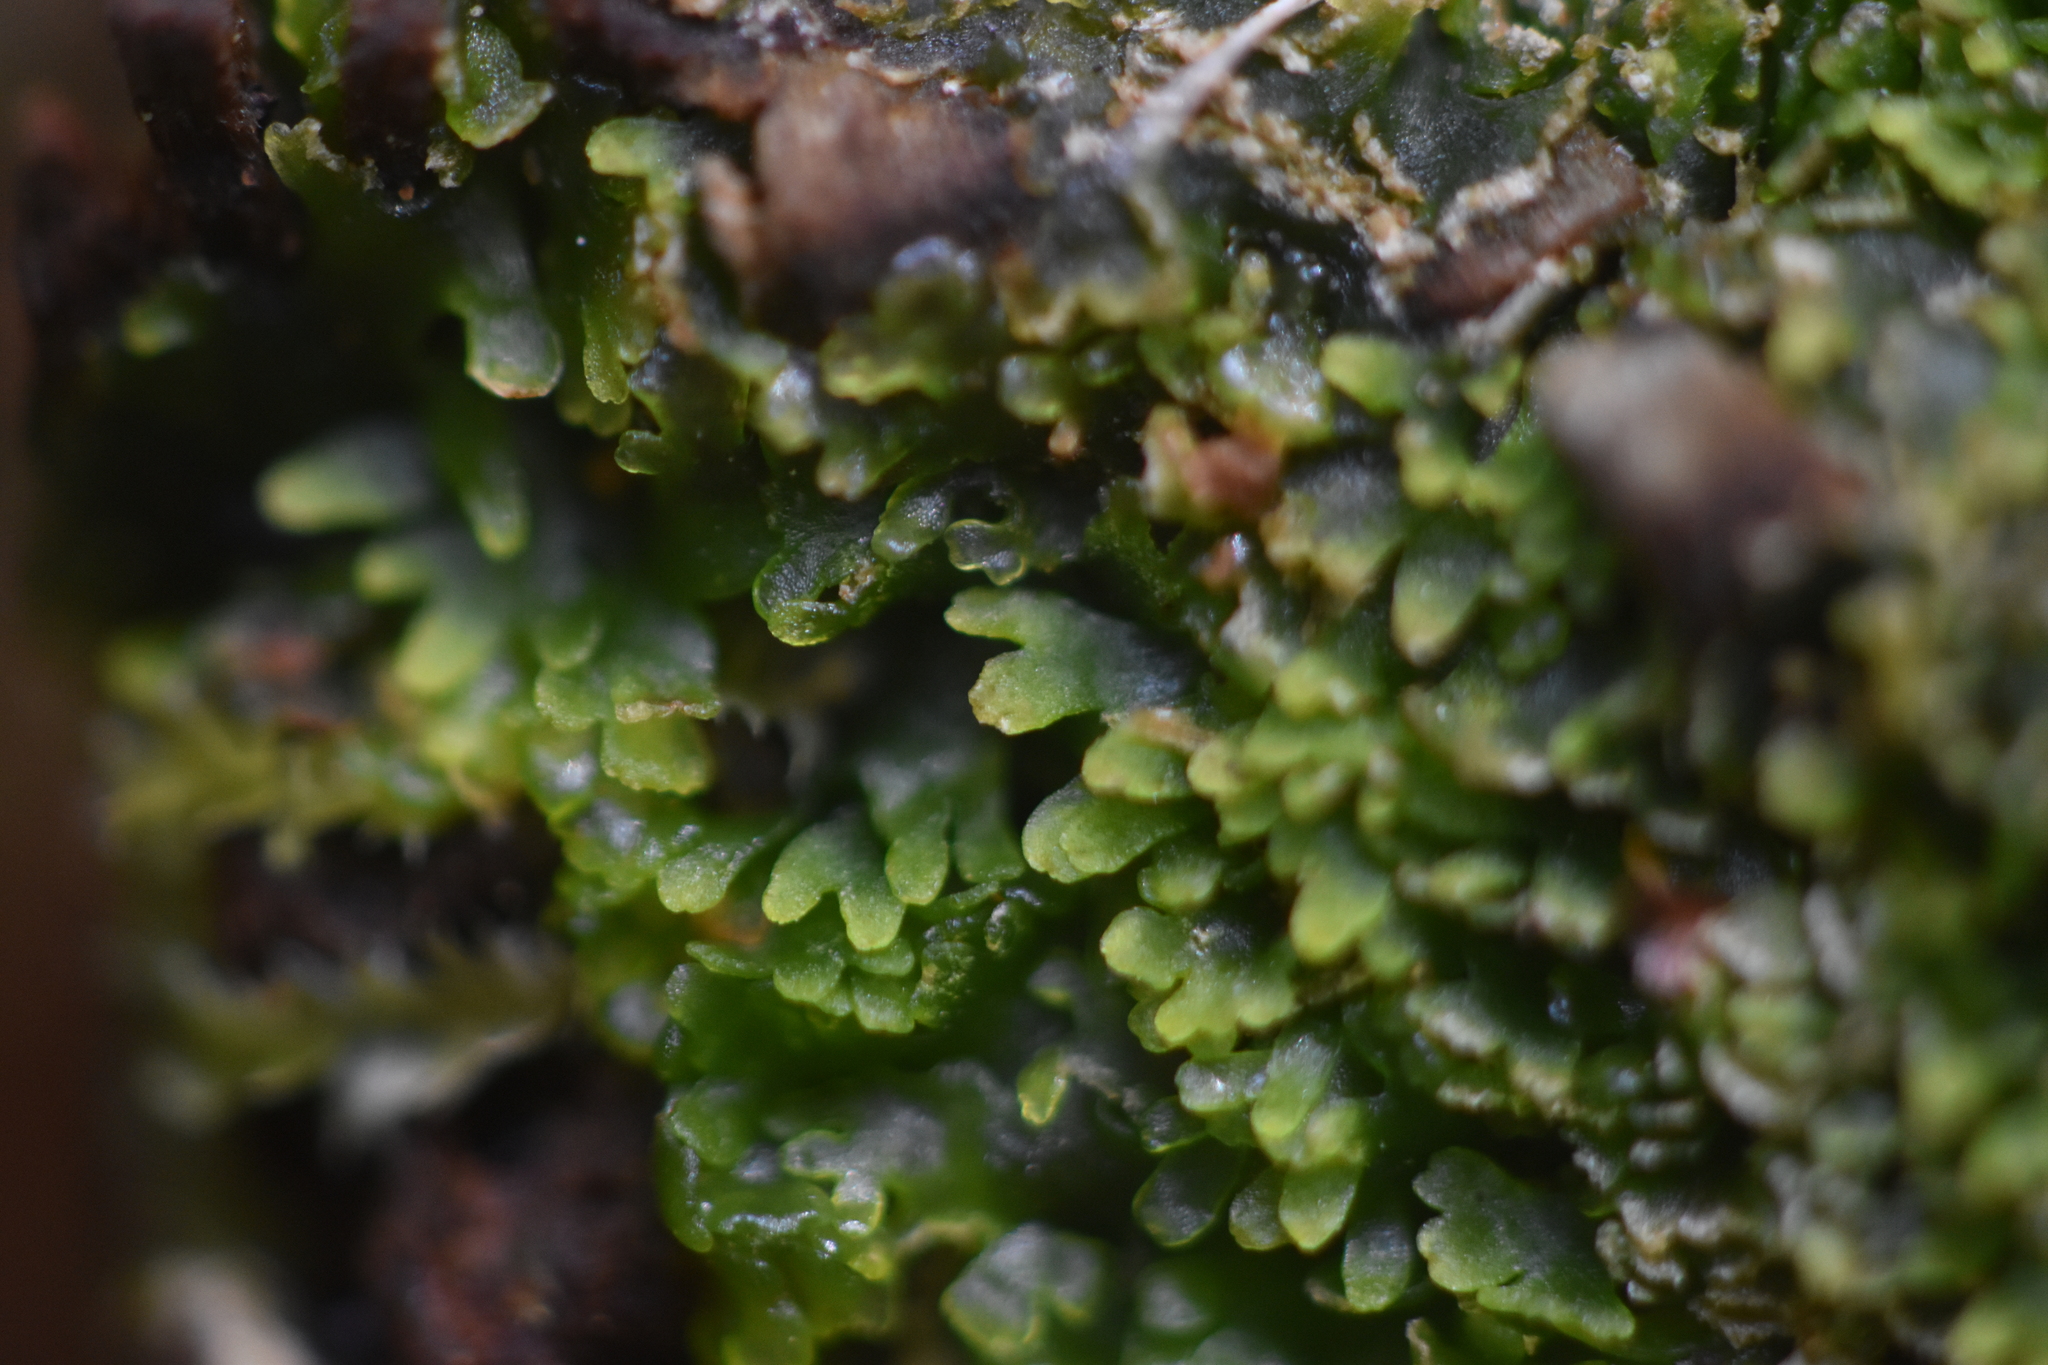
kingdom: Plantae
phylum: Marchantiophyta
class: Jungermanniopsida
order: Metzgeriales
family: Aneuraceae
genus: Riccardia
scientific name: Riccardia latifrons
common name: Bog germanderwort
